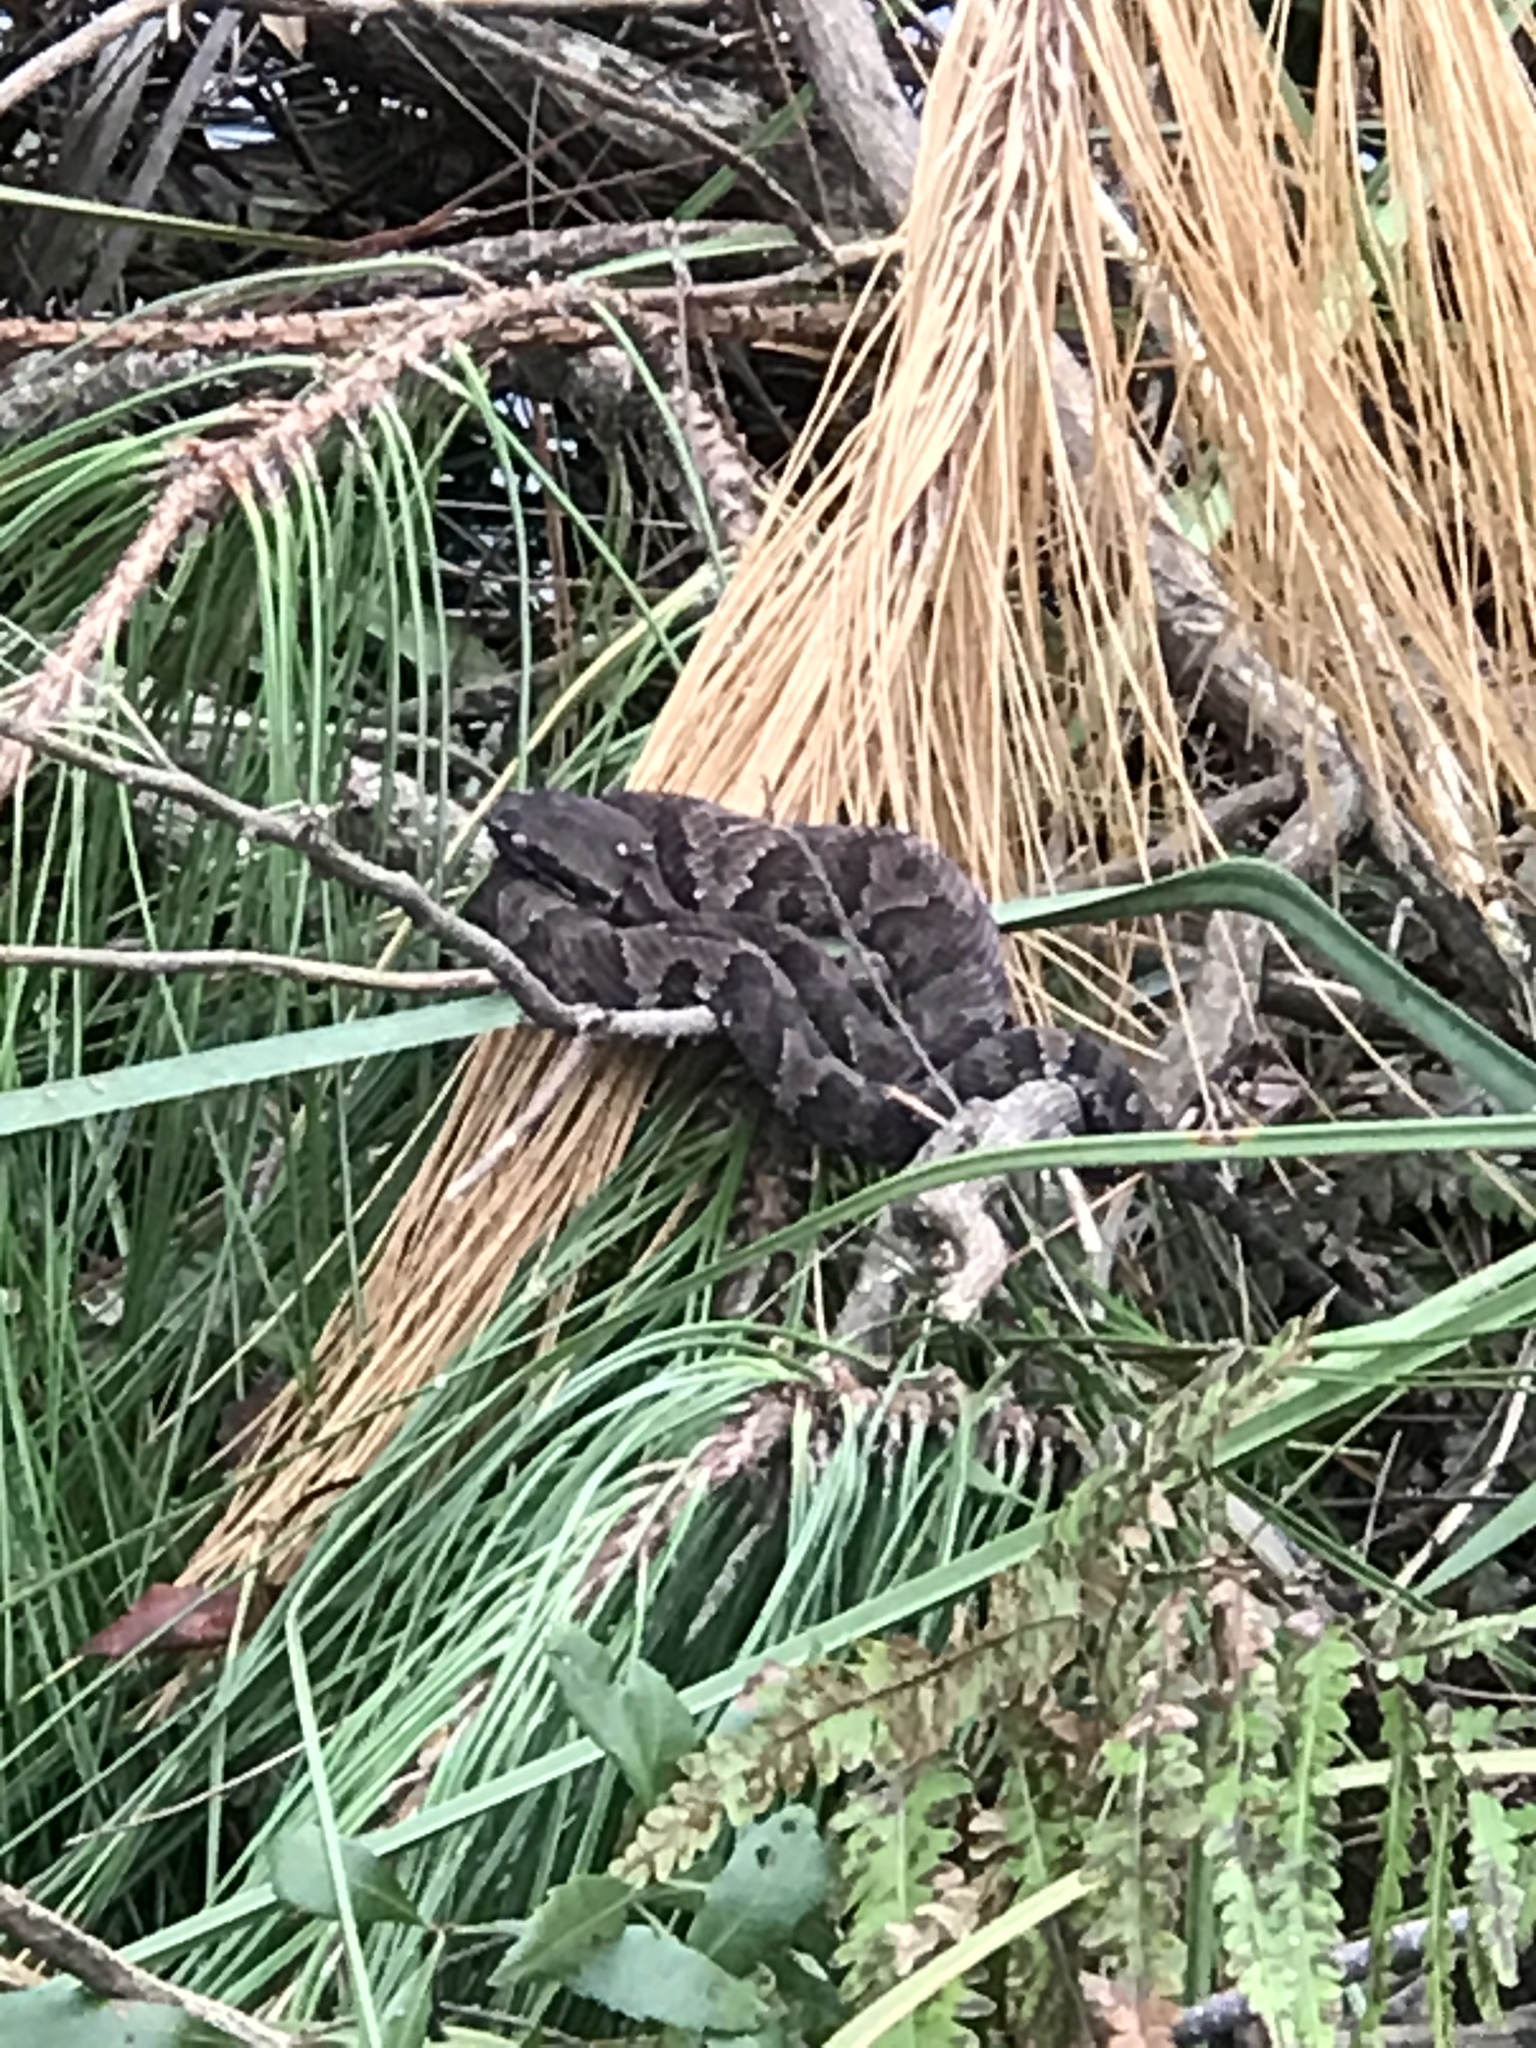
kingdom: Animalia
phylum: Chordata
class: Squamata
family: Viperidae
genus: Agkistrodon
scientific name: Agkistrodon piscivorus
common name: Cottonmouth
